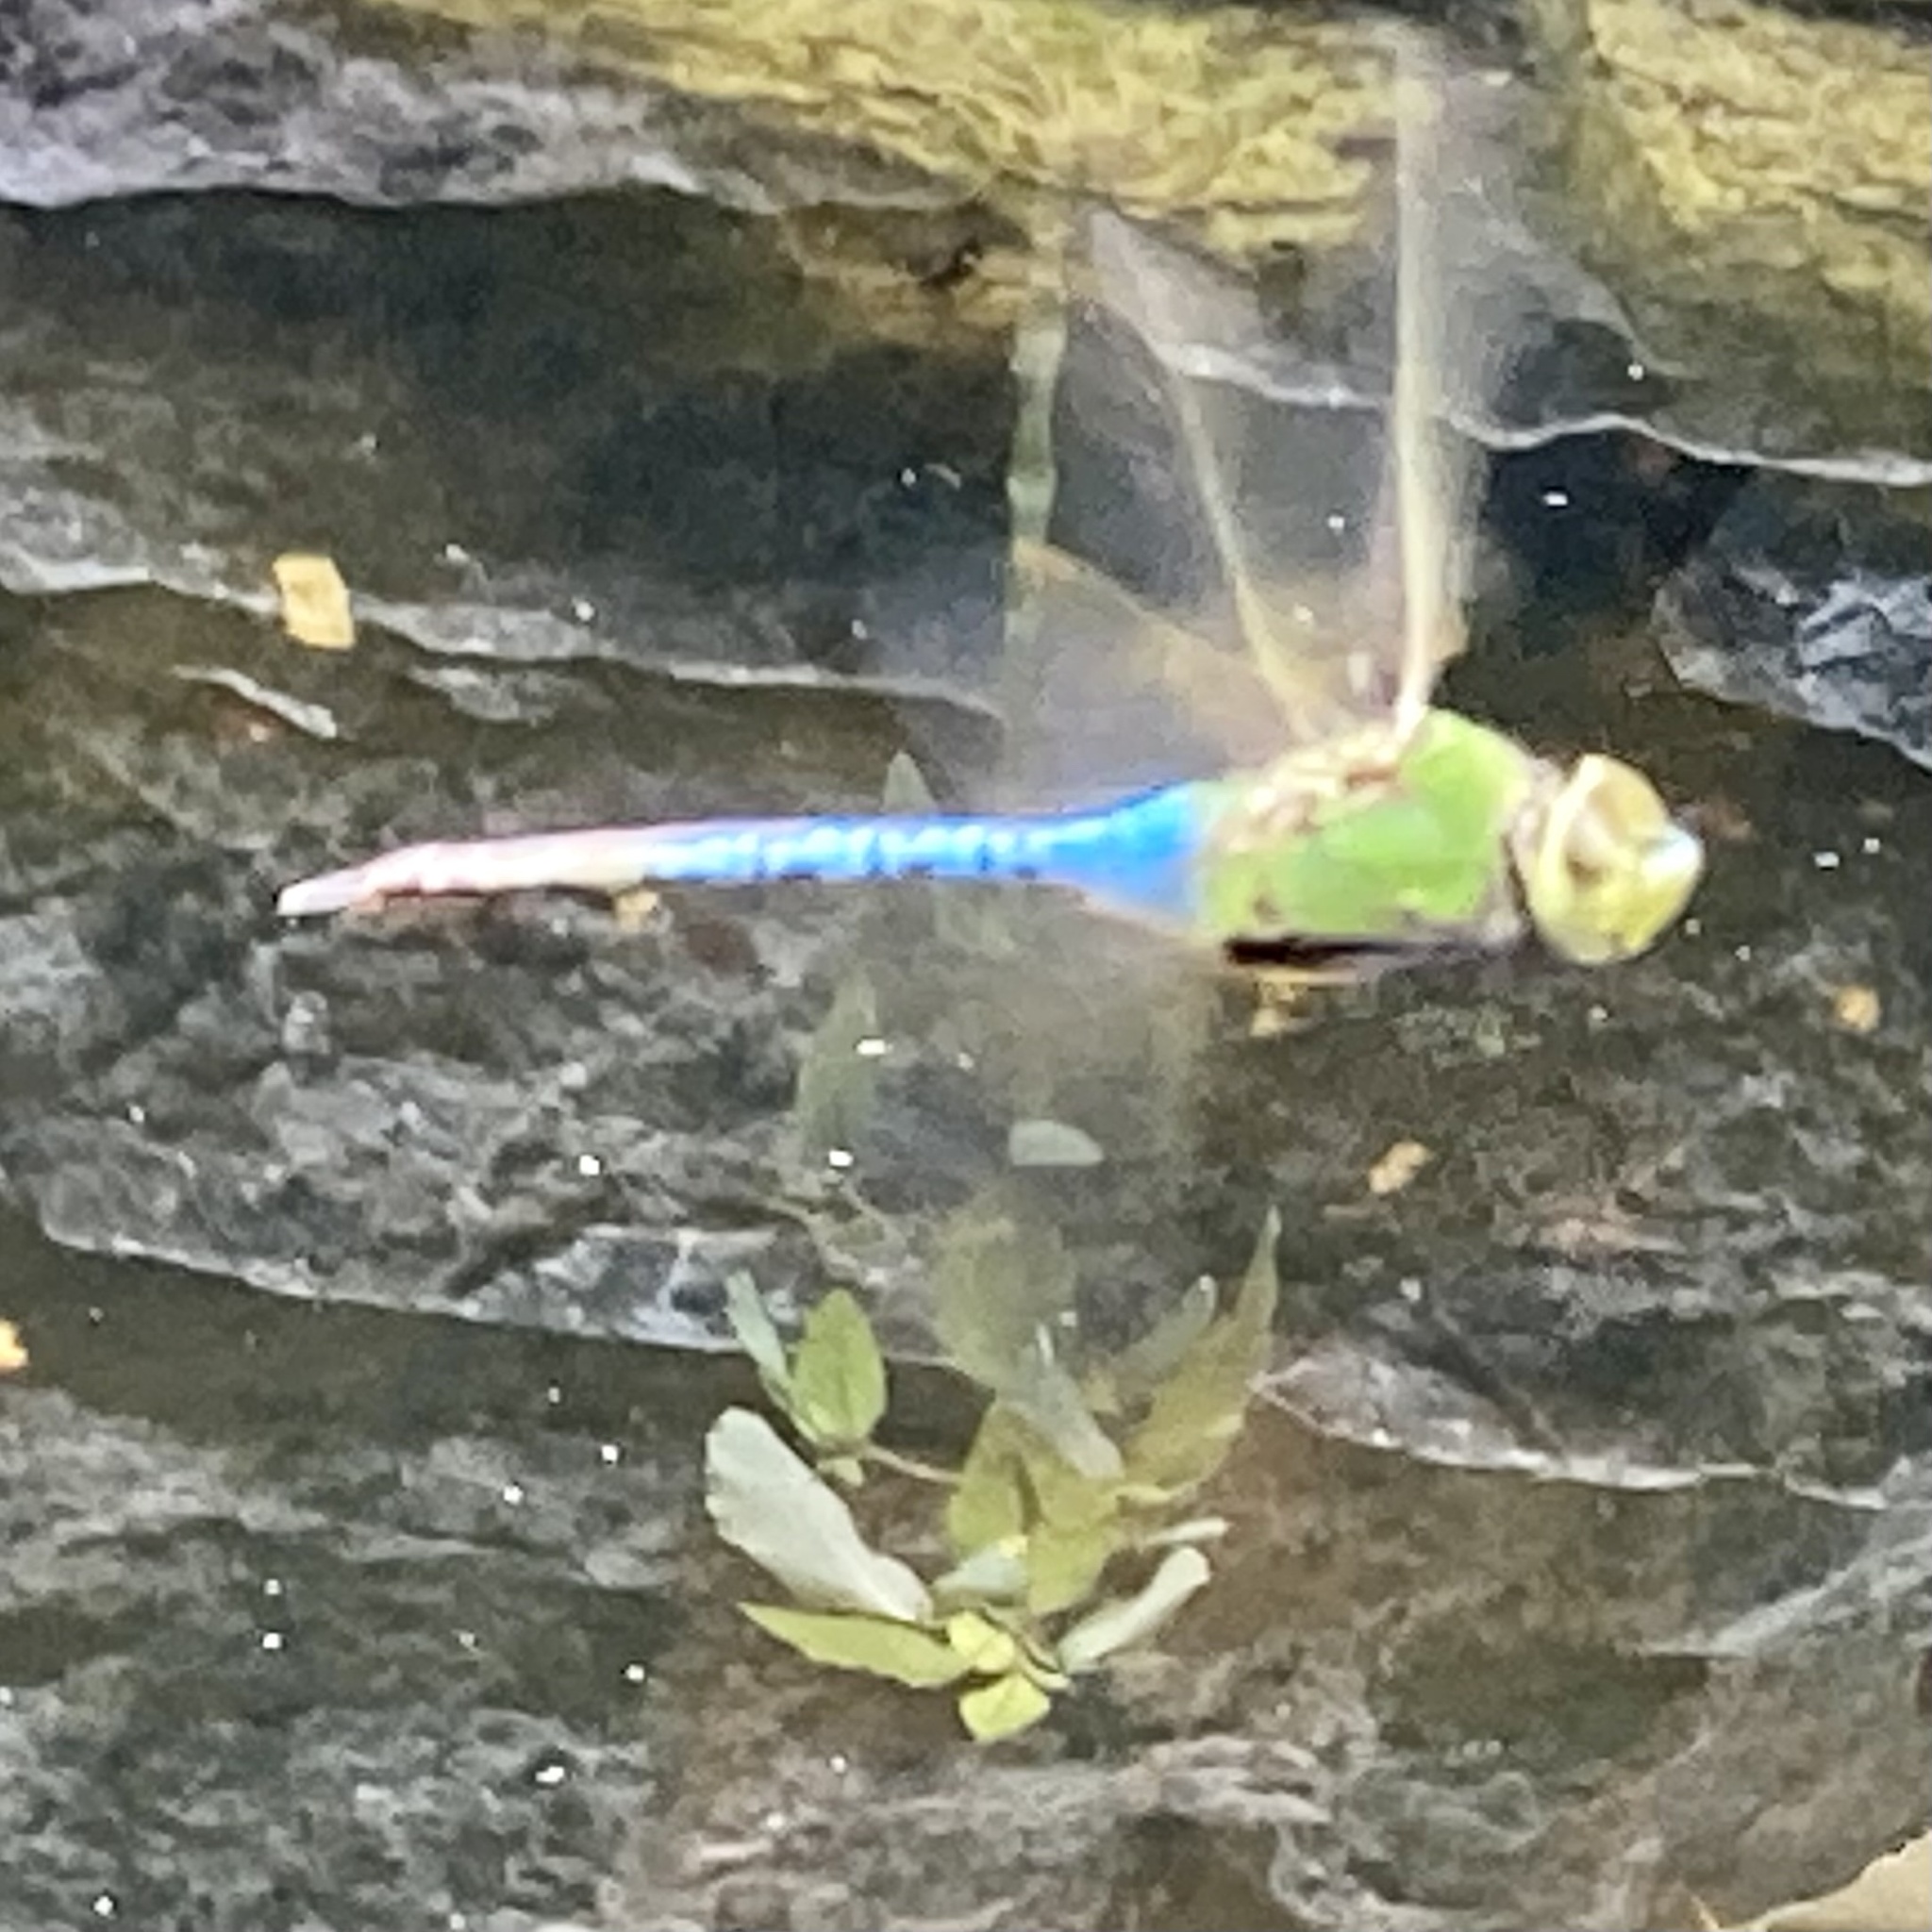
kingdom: Animalia
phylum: Arthropoda
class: Insecta
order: Odonata
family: Aeshnidae
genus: Anax
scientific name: Anax junius
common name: Common green darner
